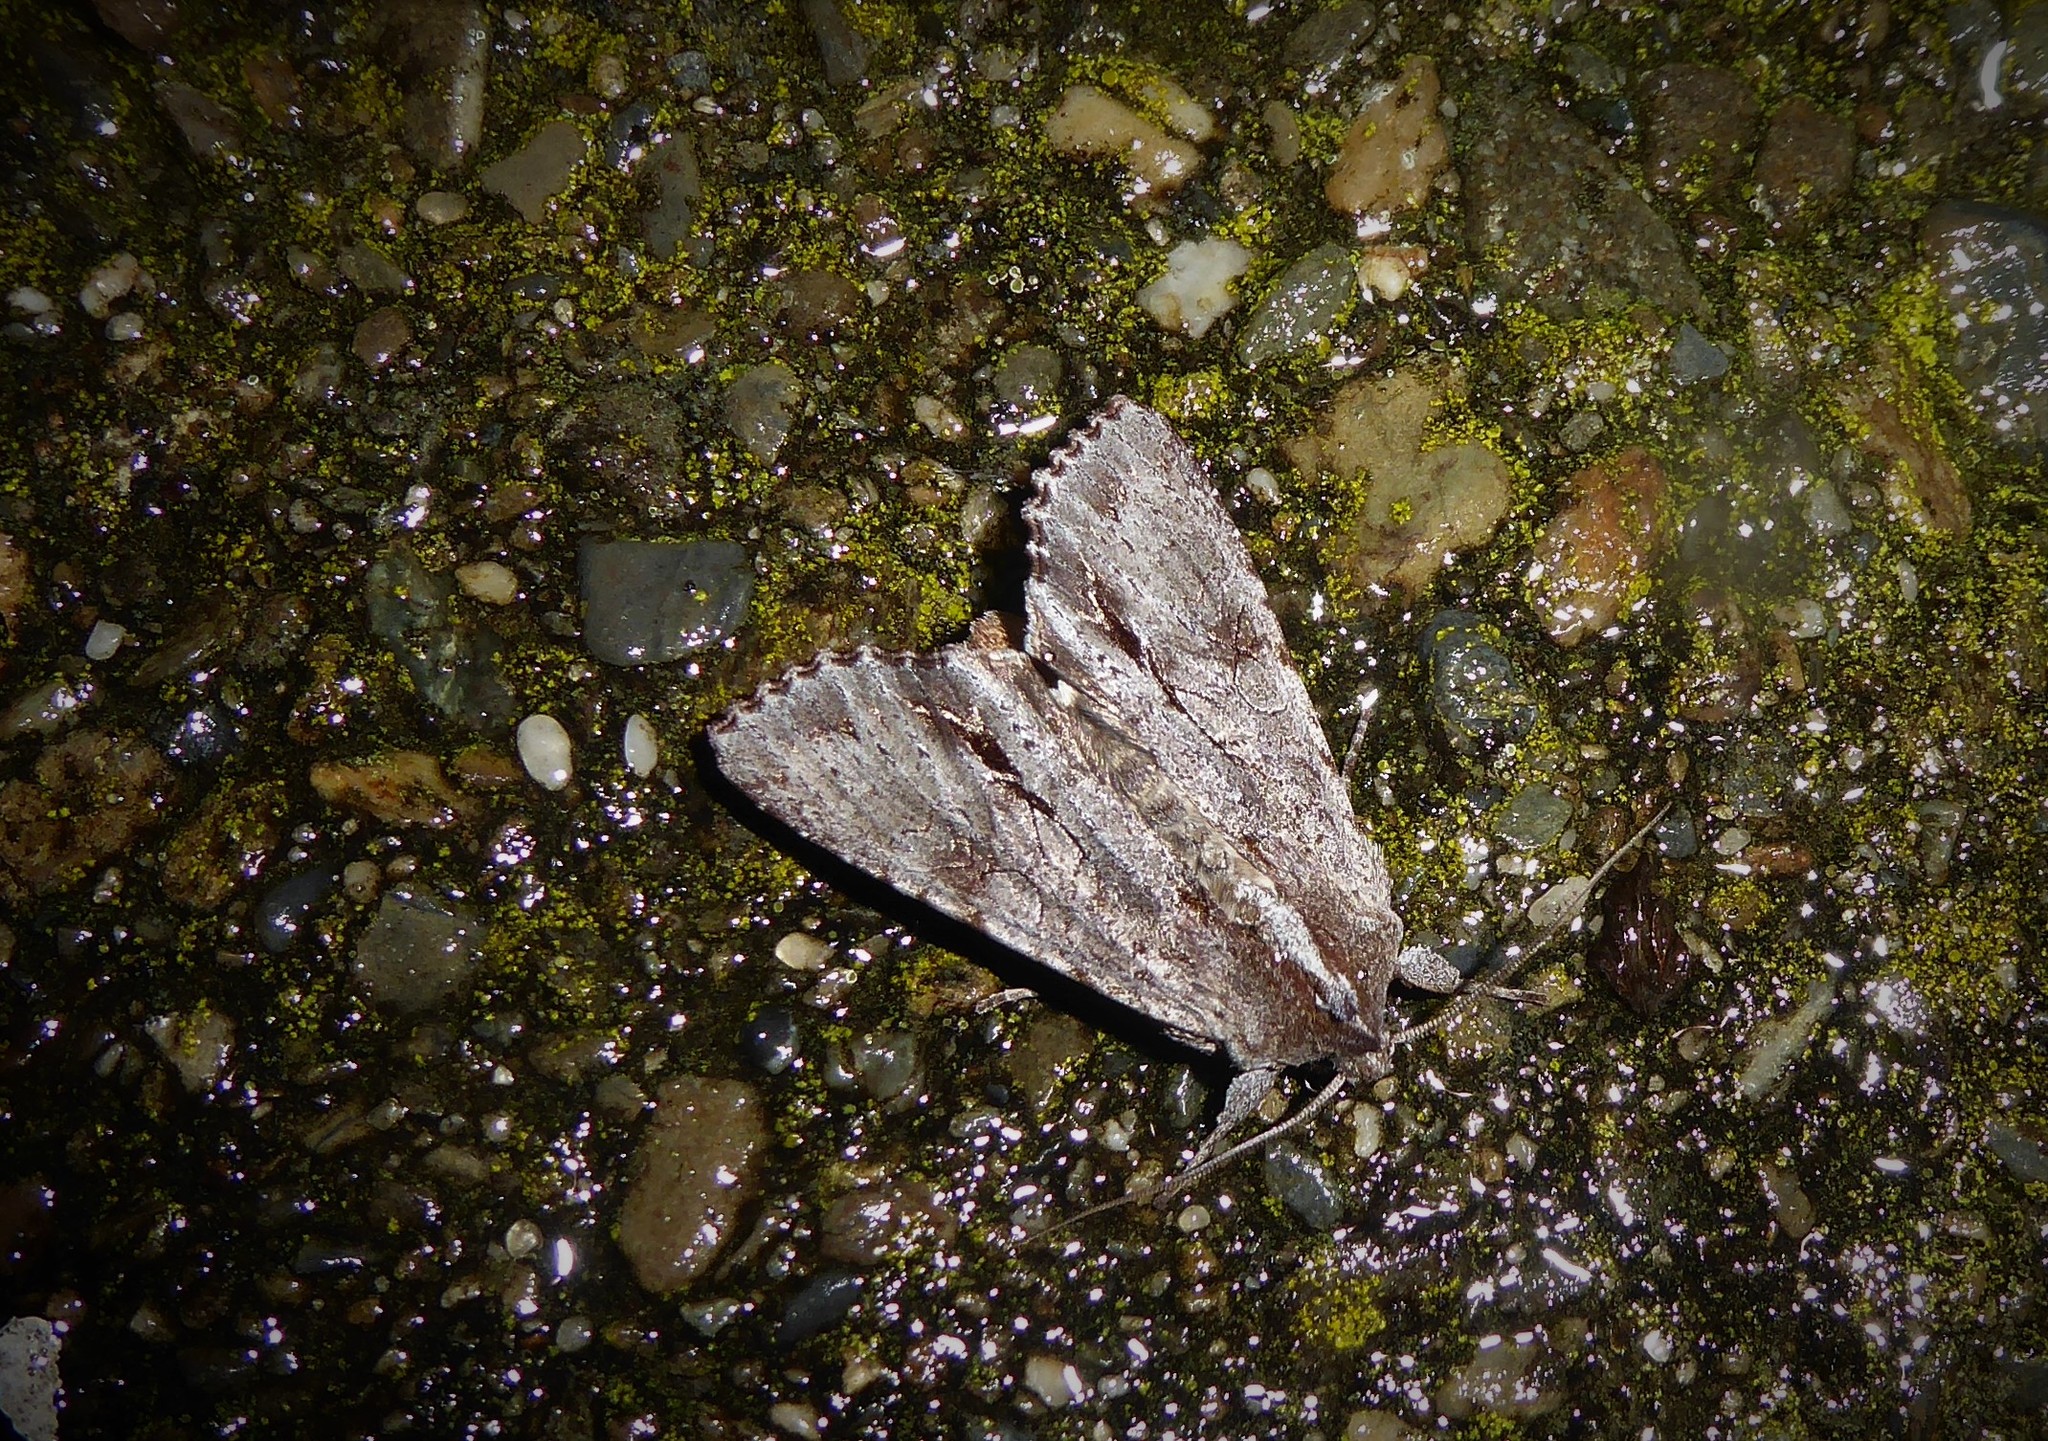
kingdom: Animalia
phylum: Arthropoda
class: Insecta
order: Lepidoptera
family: Noctuidae
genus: Ichneutica
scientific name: Ichneutica
